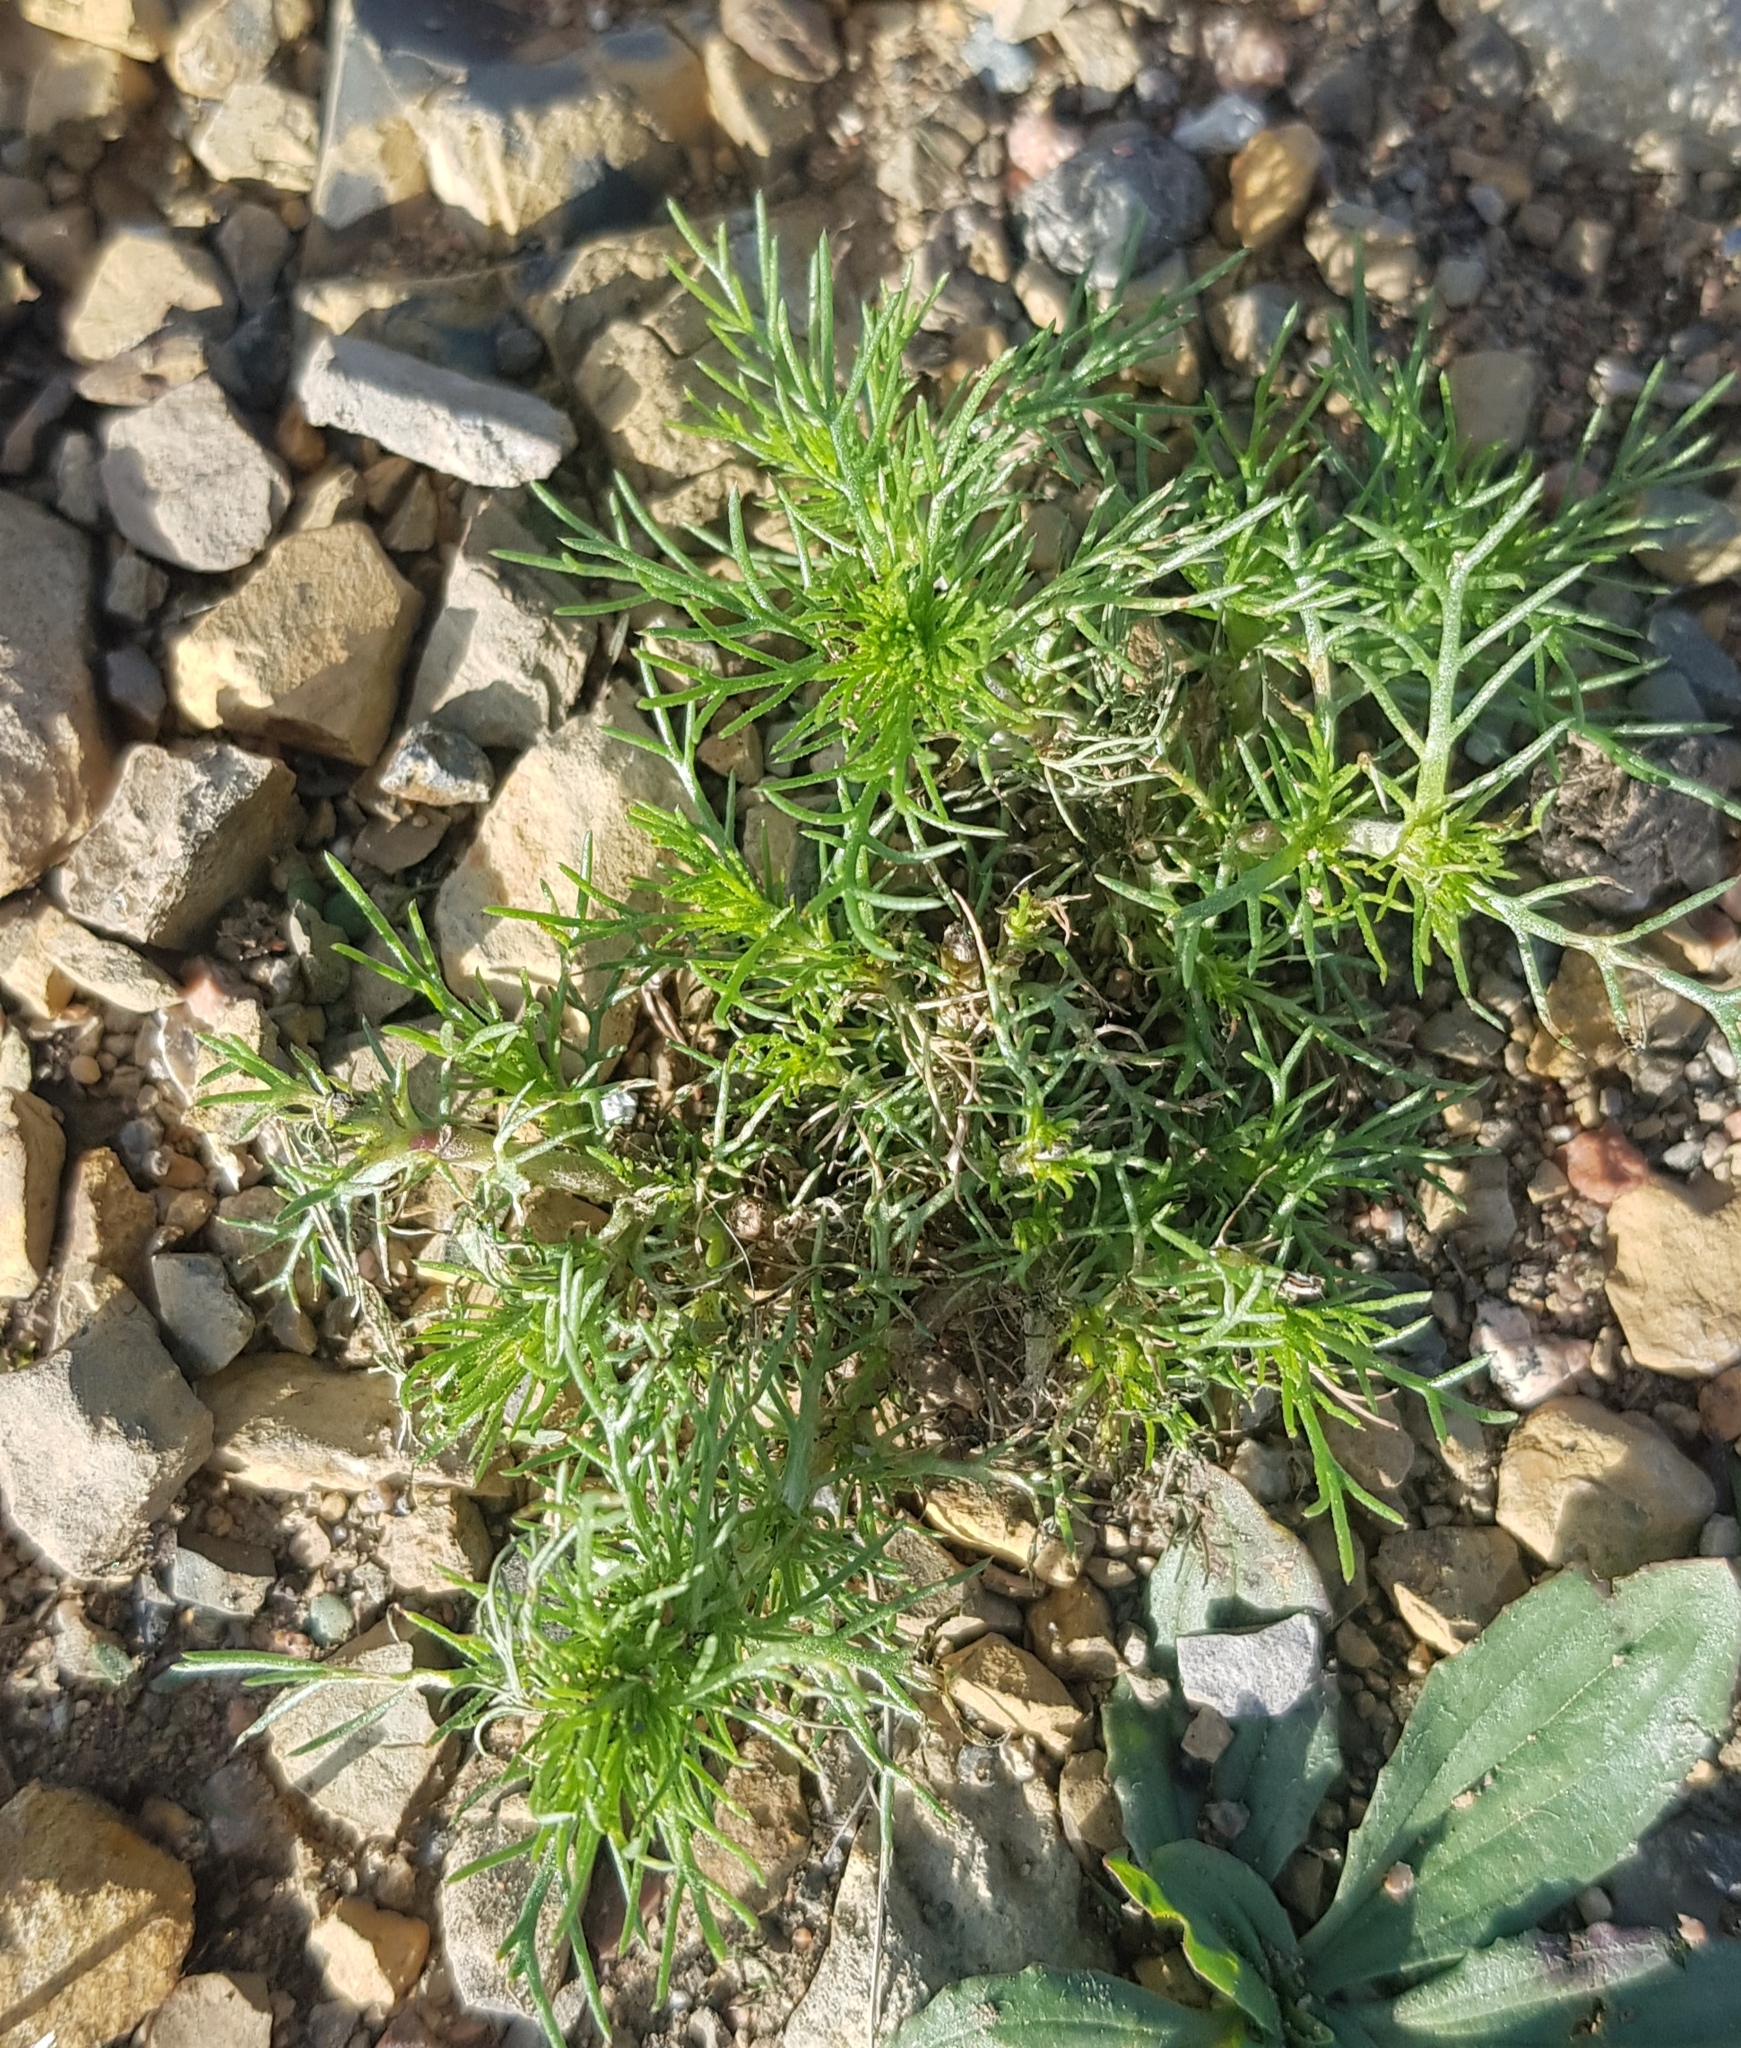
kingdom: Plantae
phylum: Tracheophyta
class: Magnoliopsida
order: Caryophyllales
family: Amaranthaceae
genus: Salsola
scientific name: Salsola collina
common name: Tumbleweed
